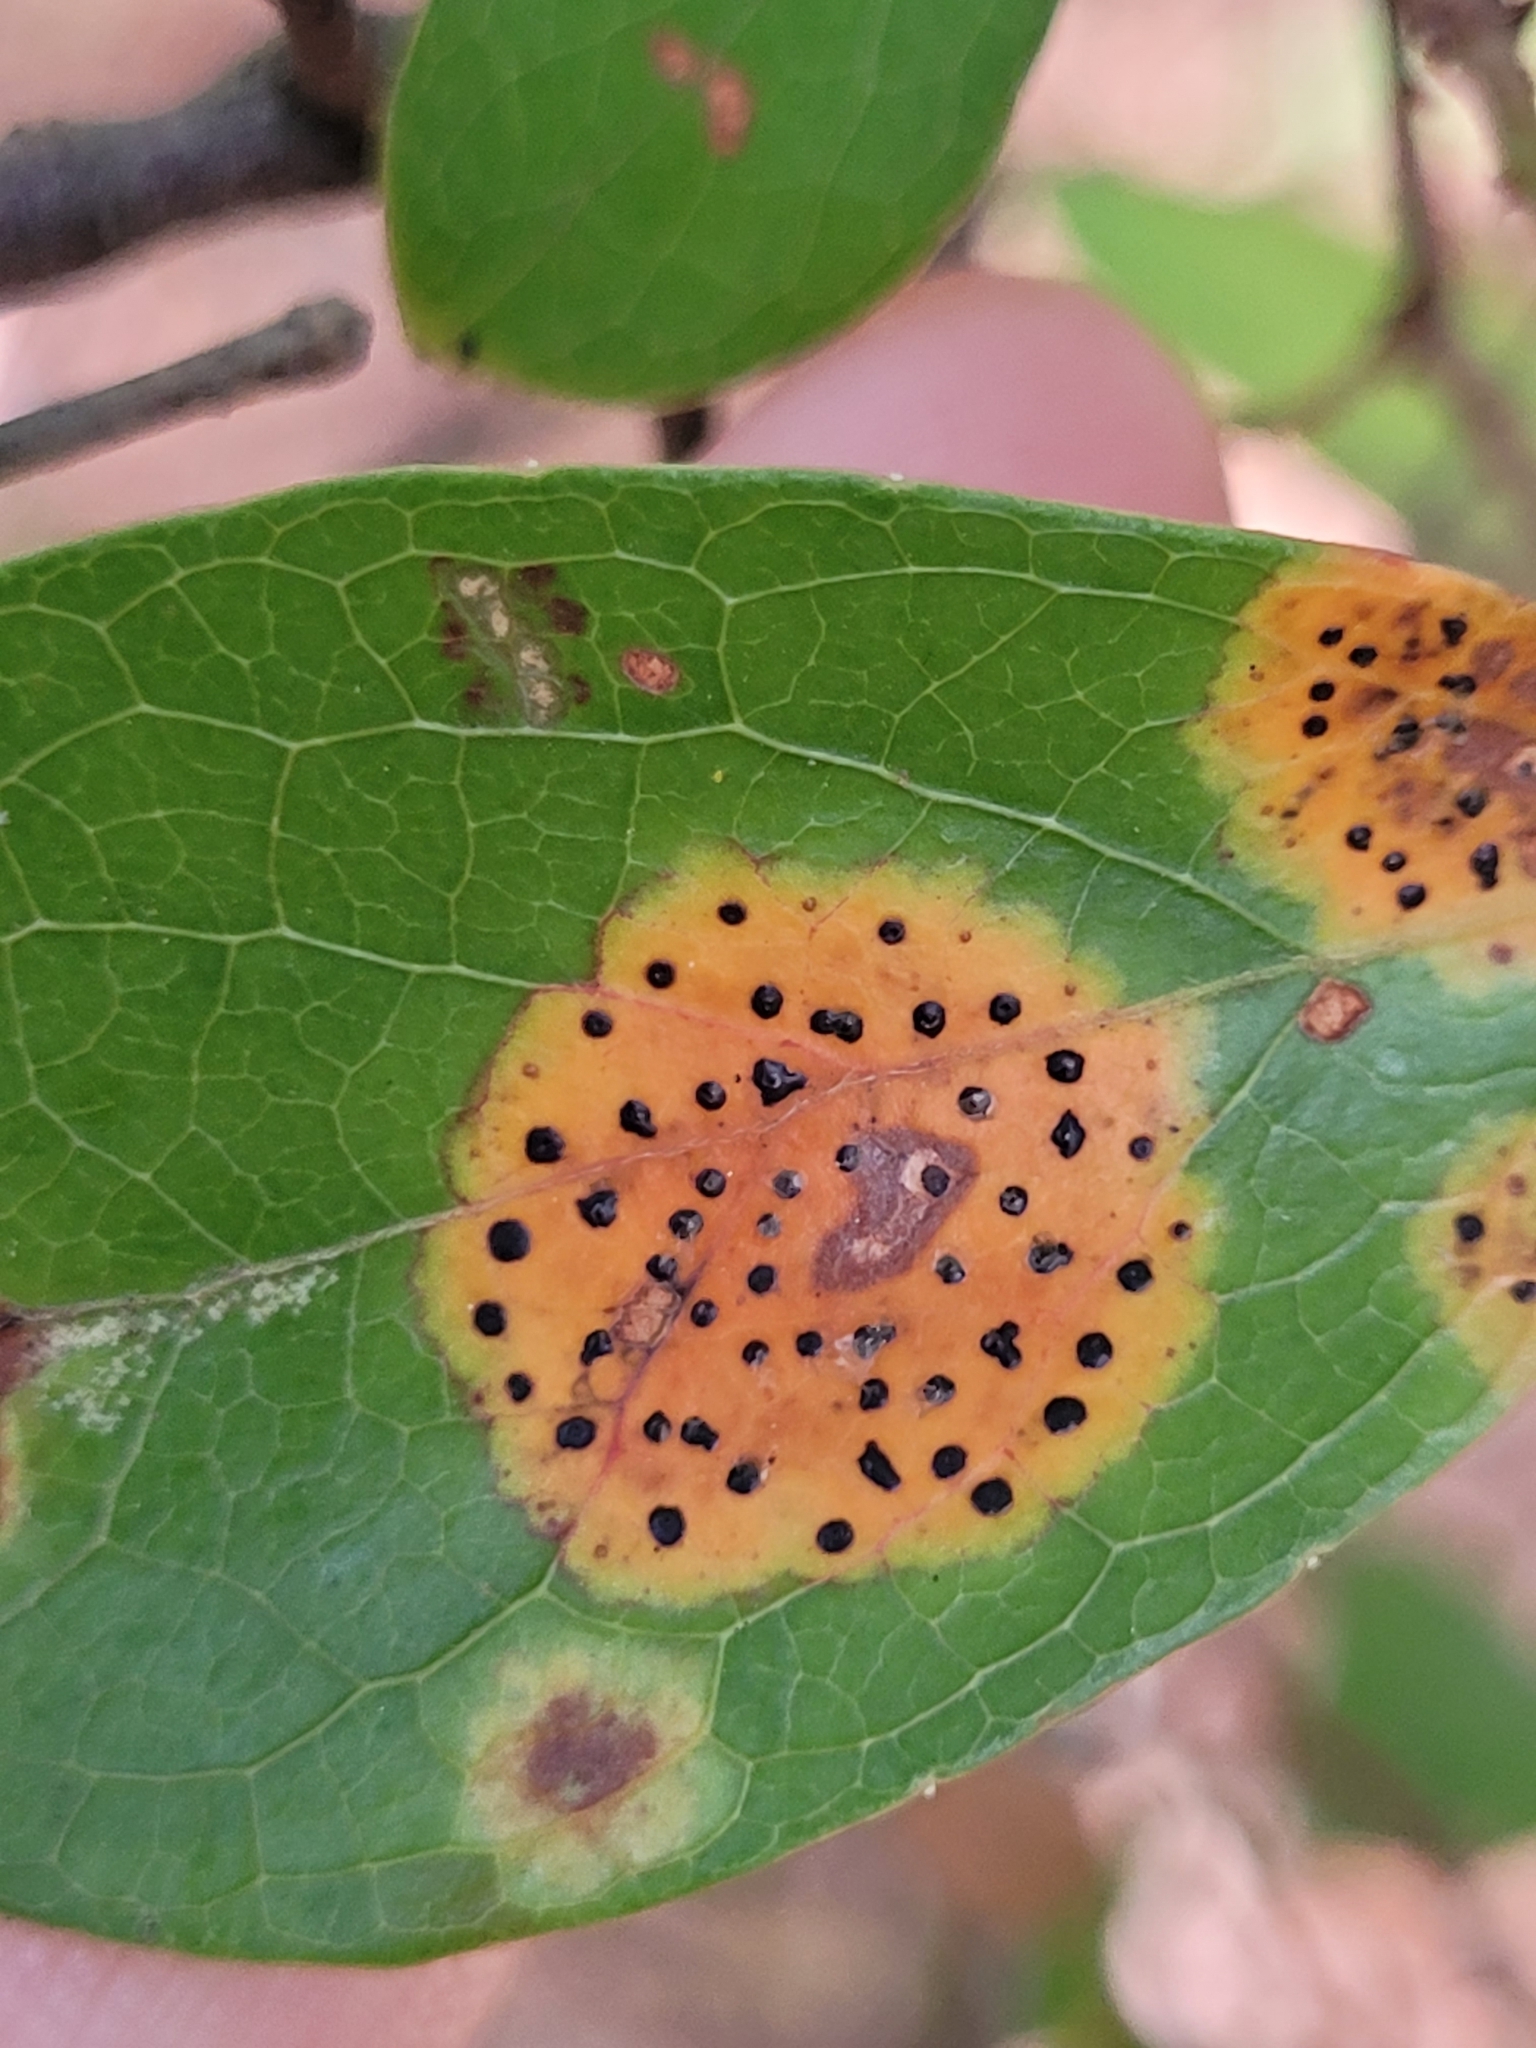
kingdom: Fungi
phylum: Ascomycota
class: Sordariomycetes
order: Phyllachorales
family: Phyllachoraceae
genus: Ophiodothella
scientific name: Ophiodothella angustissima
